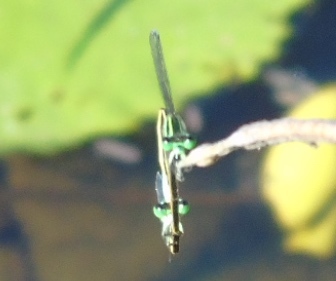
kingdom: Animalia
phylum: Arthropoda
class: Insecta
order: Odonata
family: Coenagrionidae
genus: Ischnura
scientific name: Ischnura
